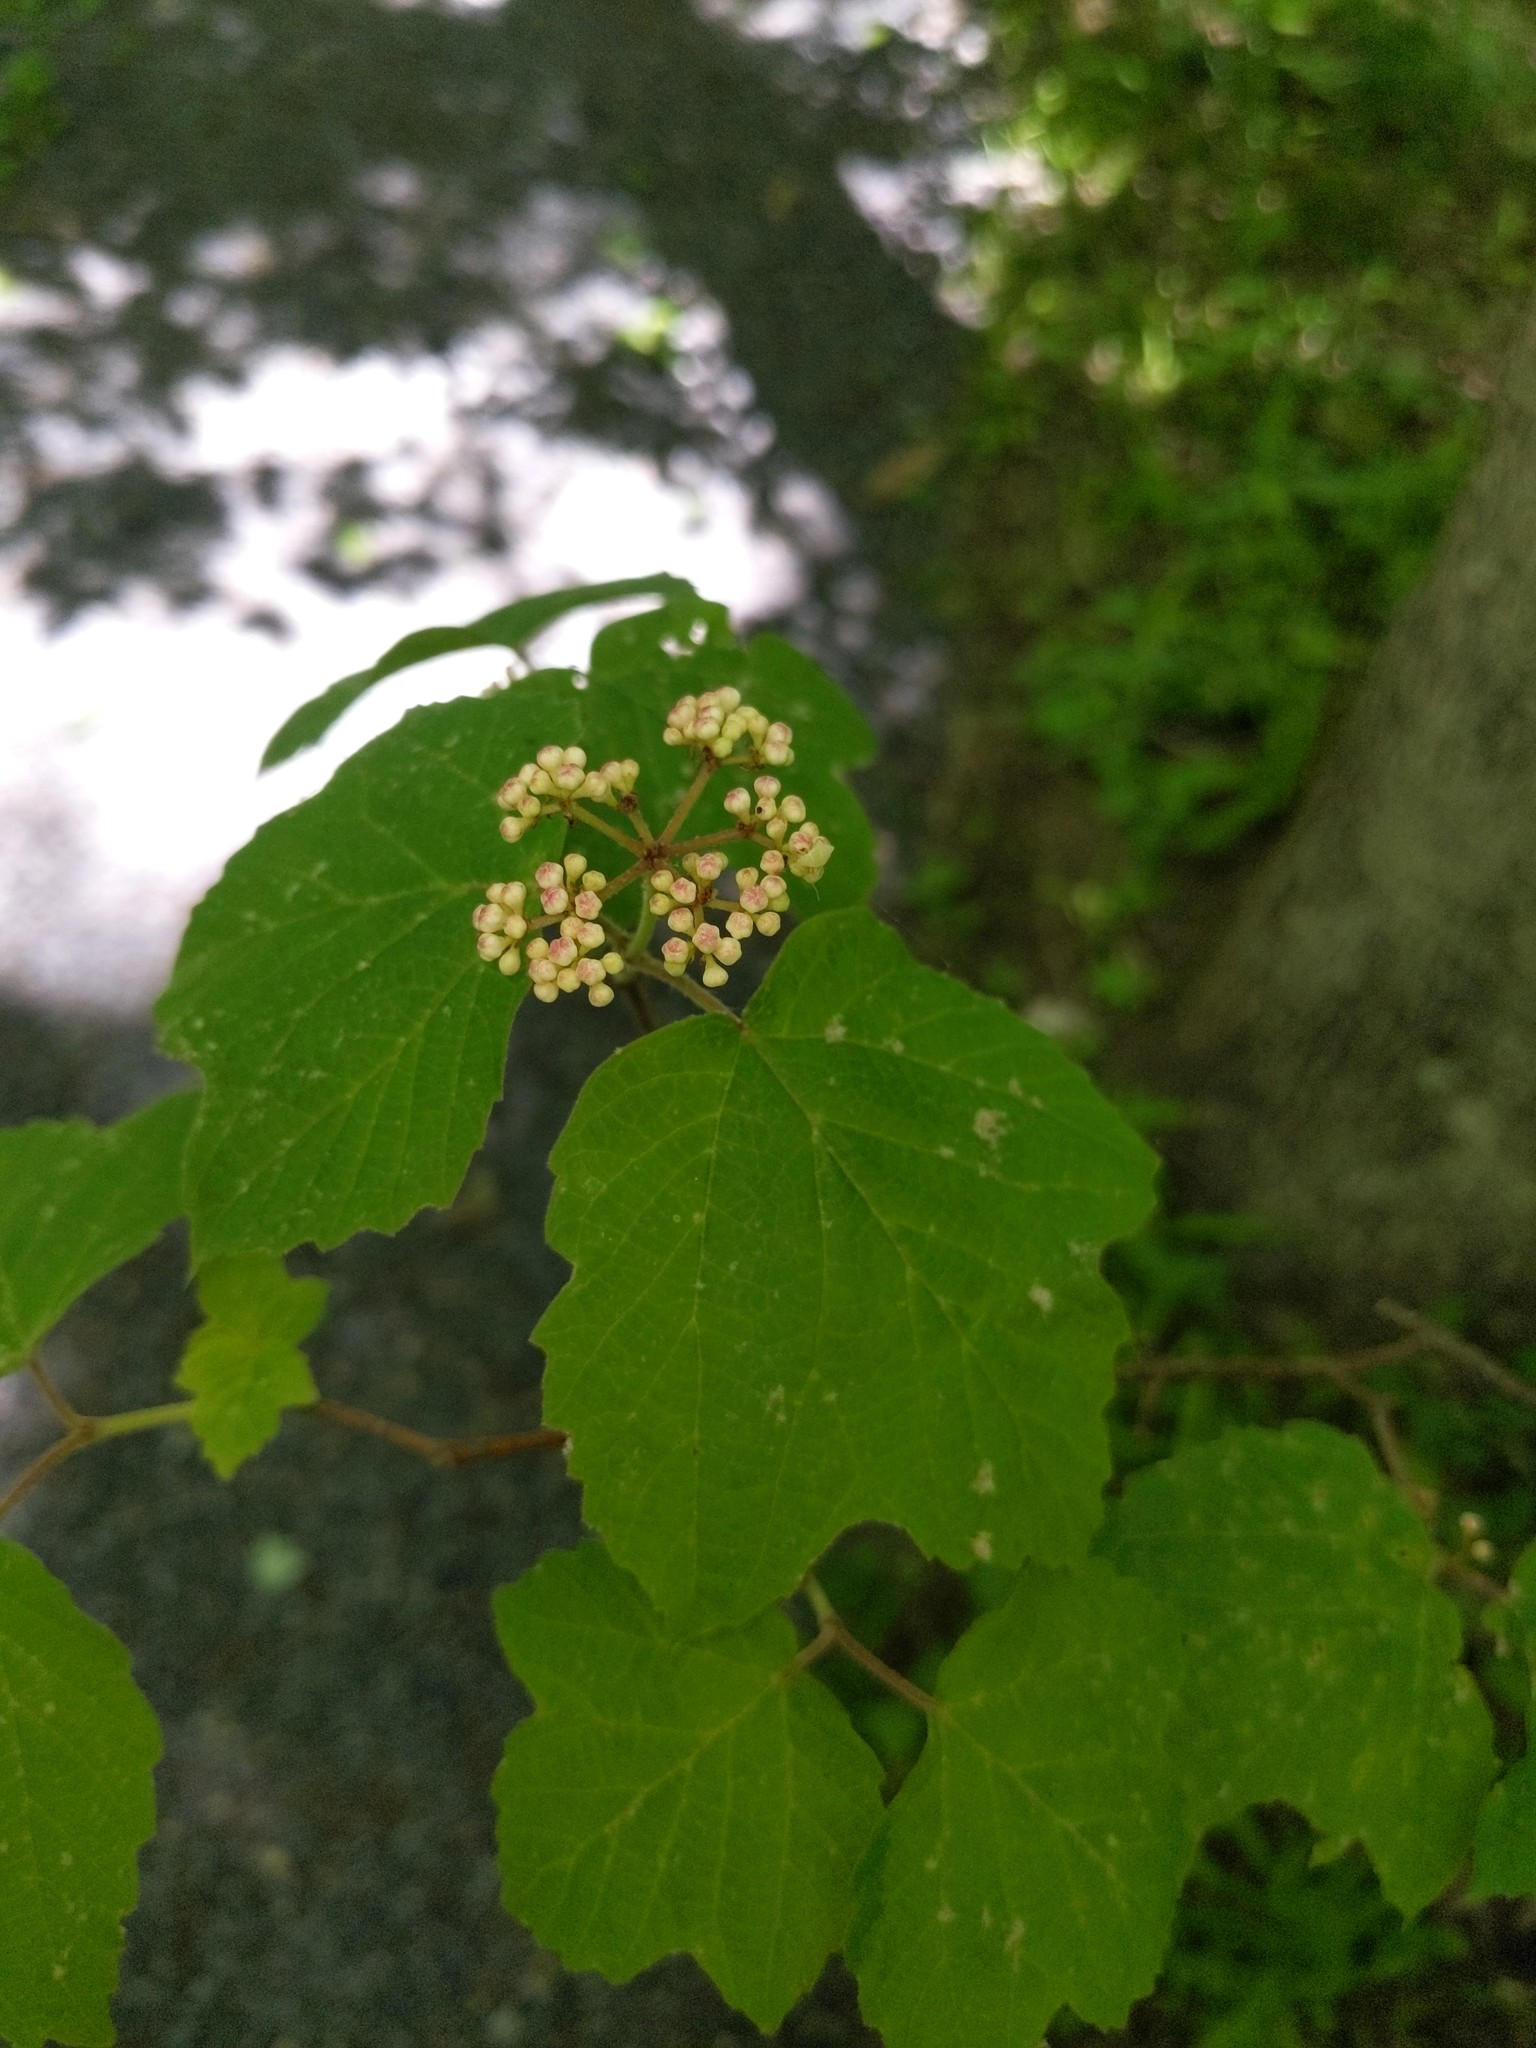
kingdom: Plantae
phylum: Tracheophyta
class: Magnoliopsida
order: Dipsacales
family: Viburnaceae
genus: Viburnum
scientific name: Viburnum acerifolium
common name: Dockmackie
